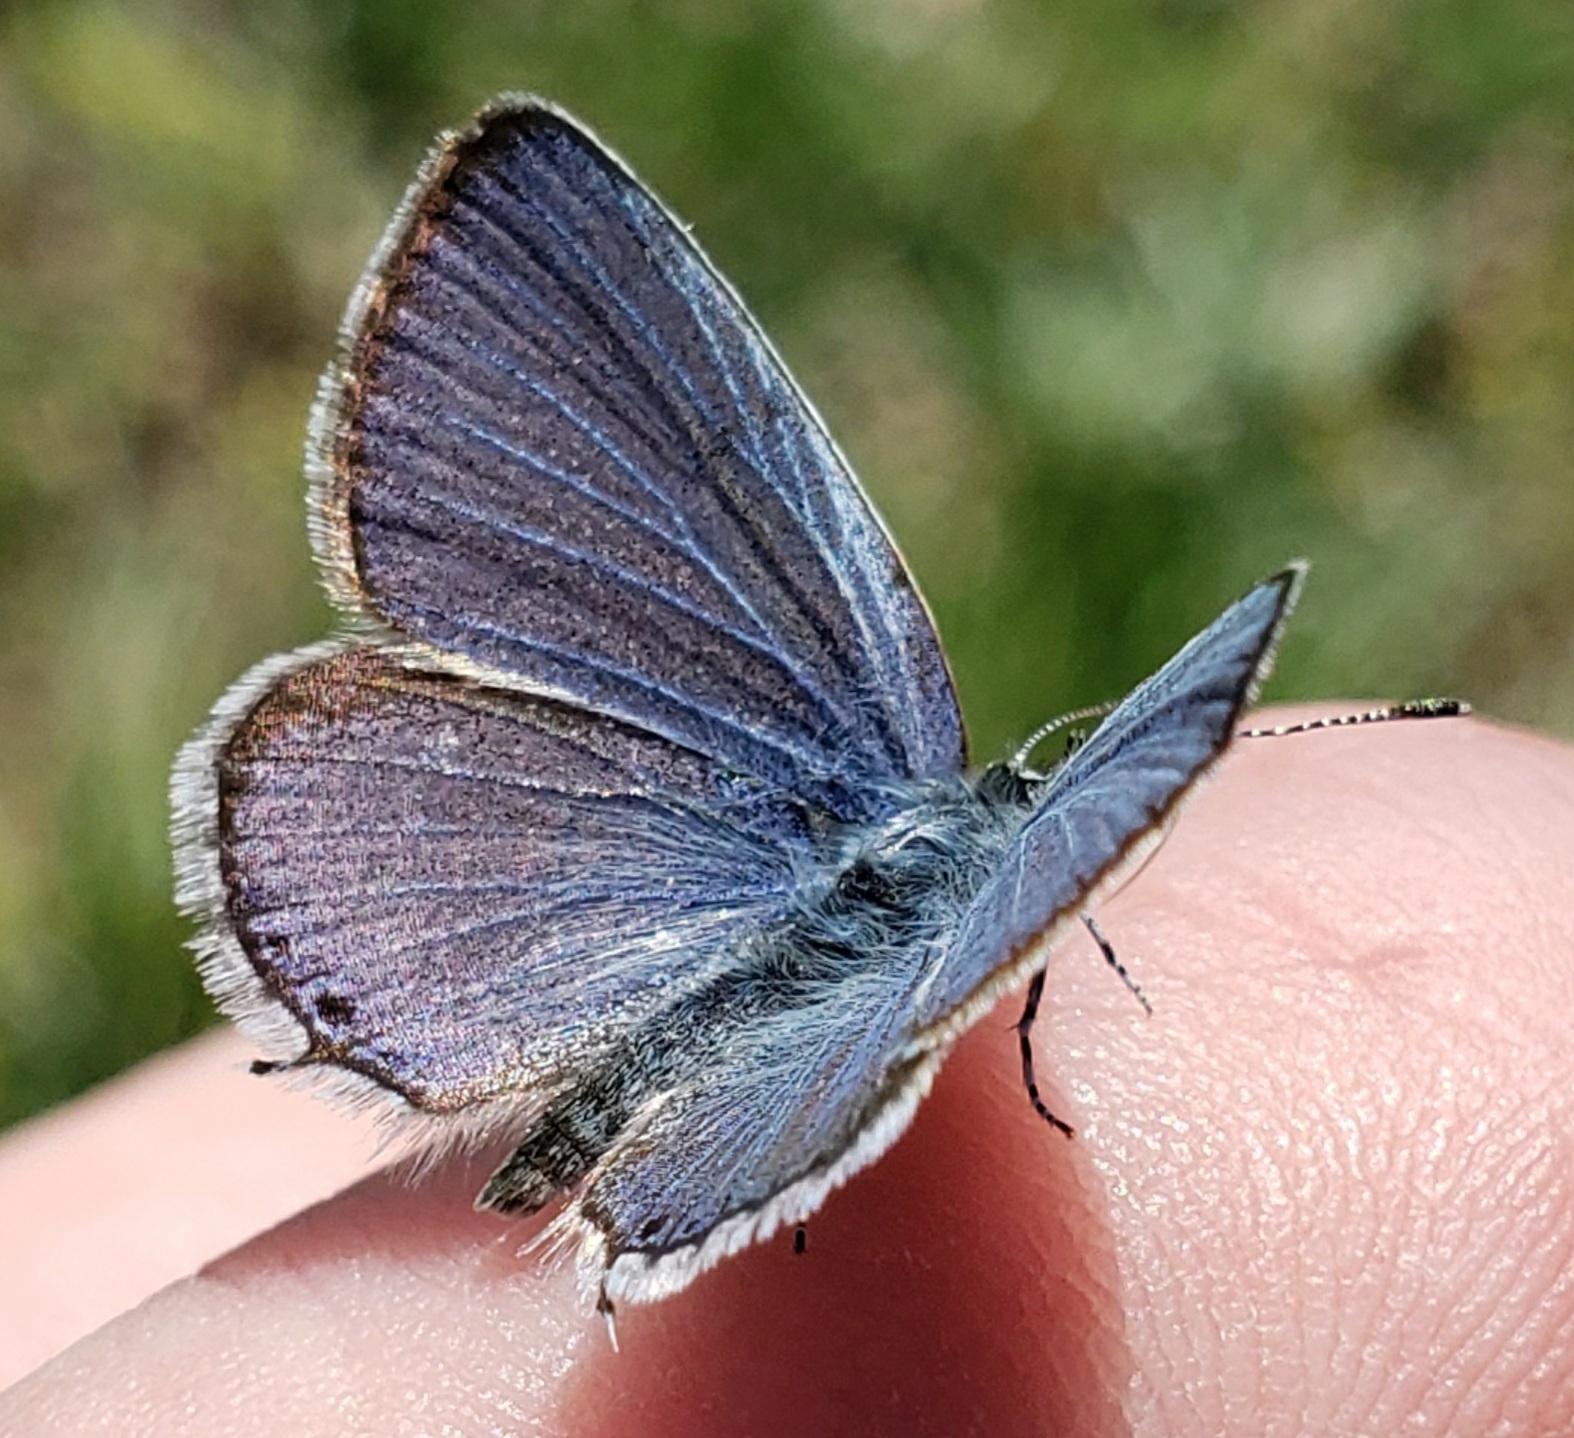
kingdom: Animalia
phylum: Arthropoda
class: Insecta
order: Lepidoptera
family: Lycaenidae
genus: Elkalyce
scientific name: Elkalyce amyntula
